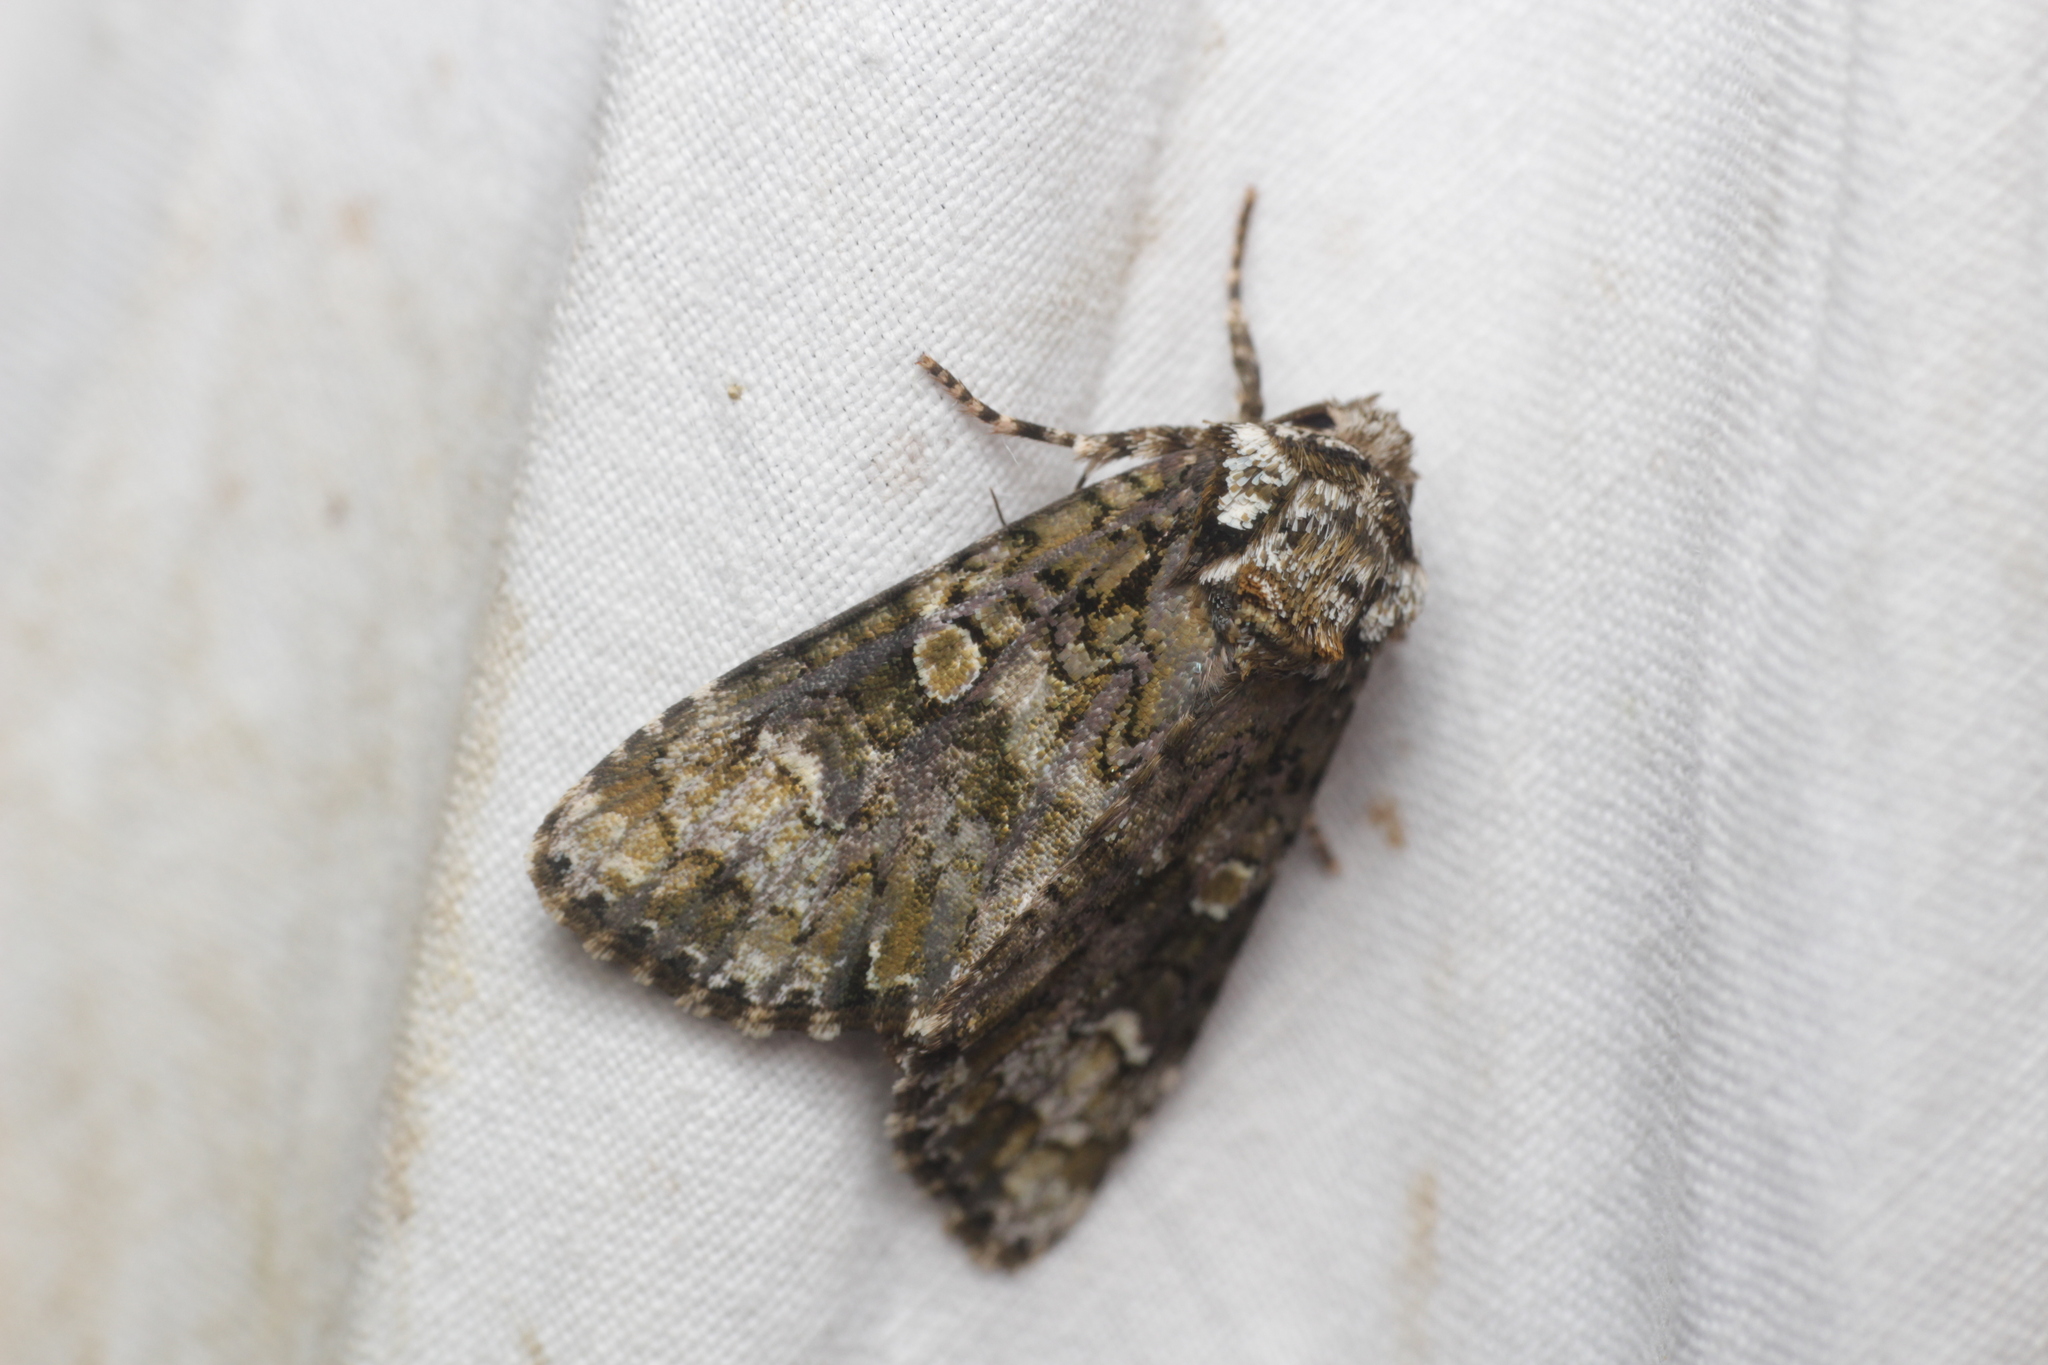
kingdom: Animalia
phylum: Arthropoda
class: Insecta
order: Lepidoptera
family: Noctuidae
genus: Craniophora
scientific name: Craniophora ligustri
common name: Coronet
